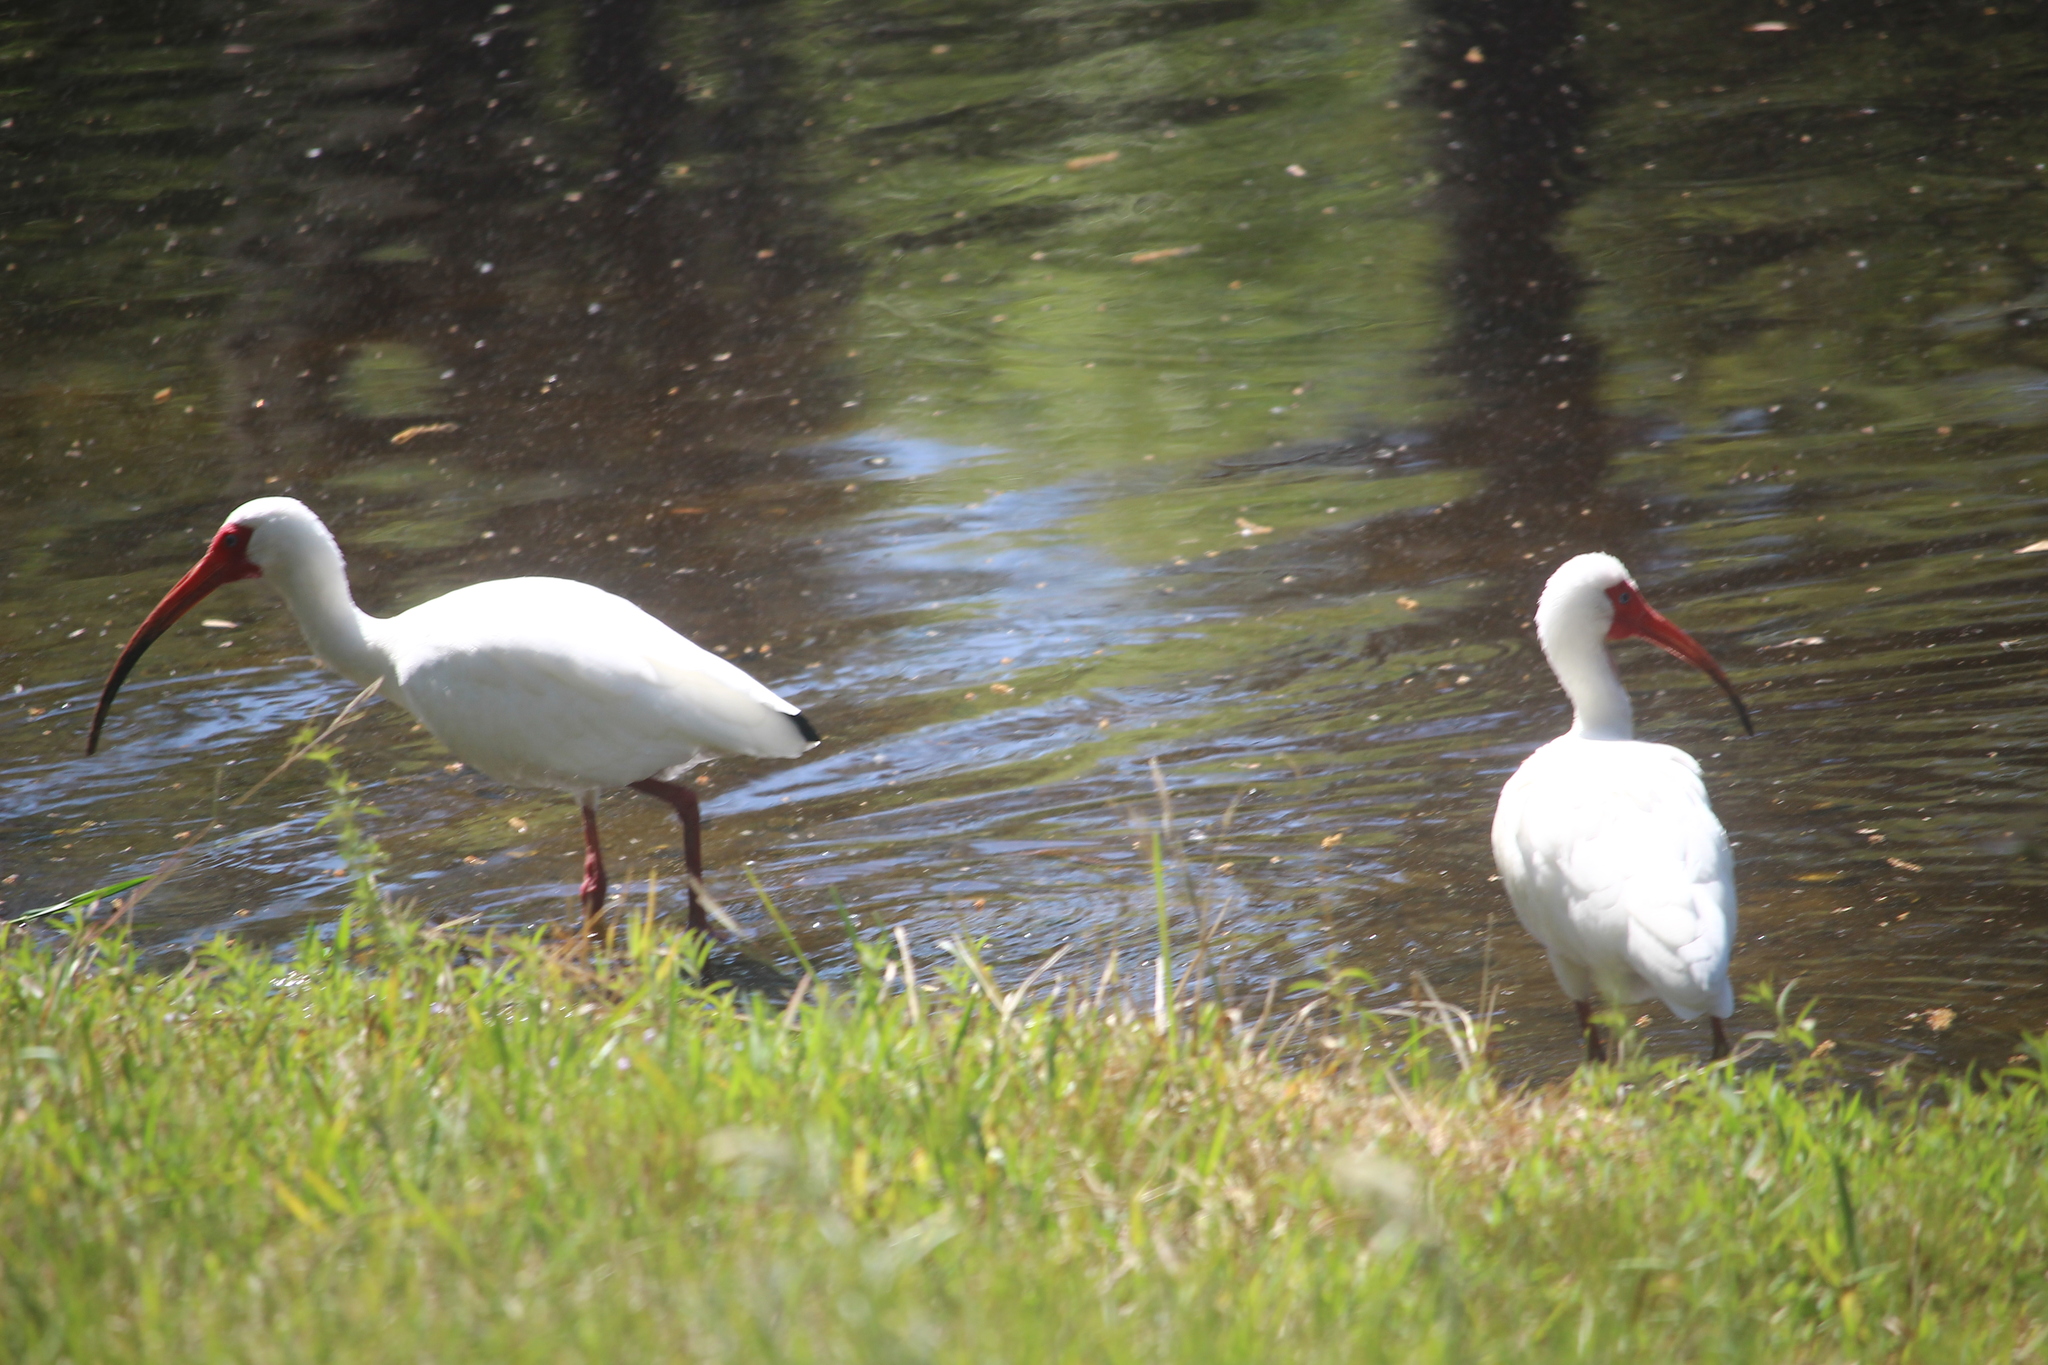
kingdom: Animalia
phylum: Chordata
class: Aves
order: Pelecaniformes
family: Threskiornithidae
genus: Eudocimus
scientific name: Eudocimus albus
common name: White ibis
